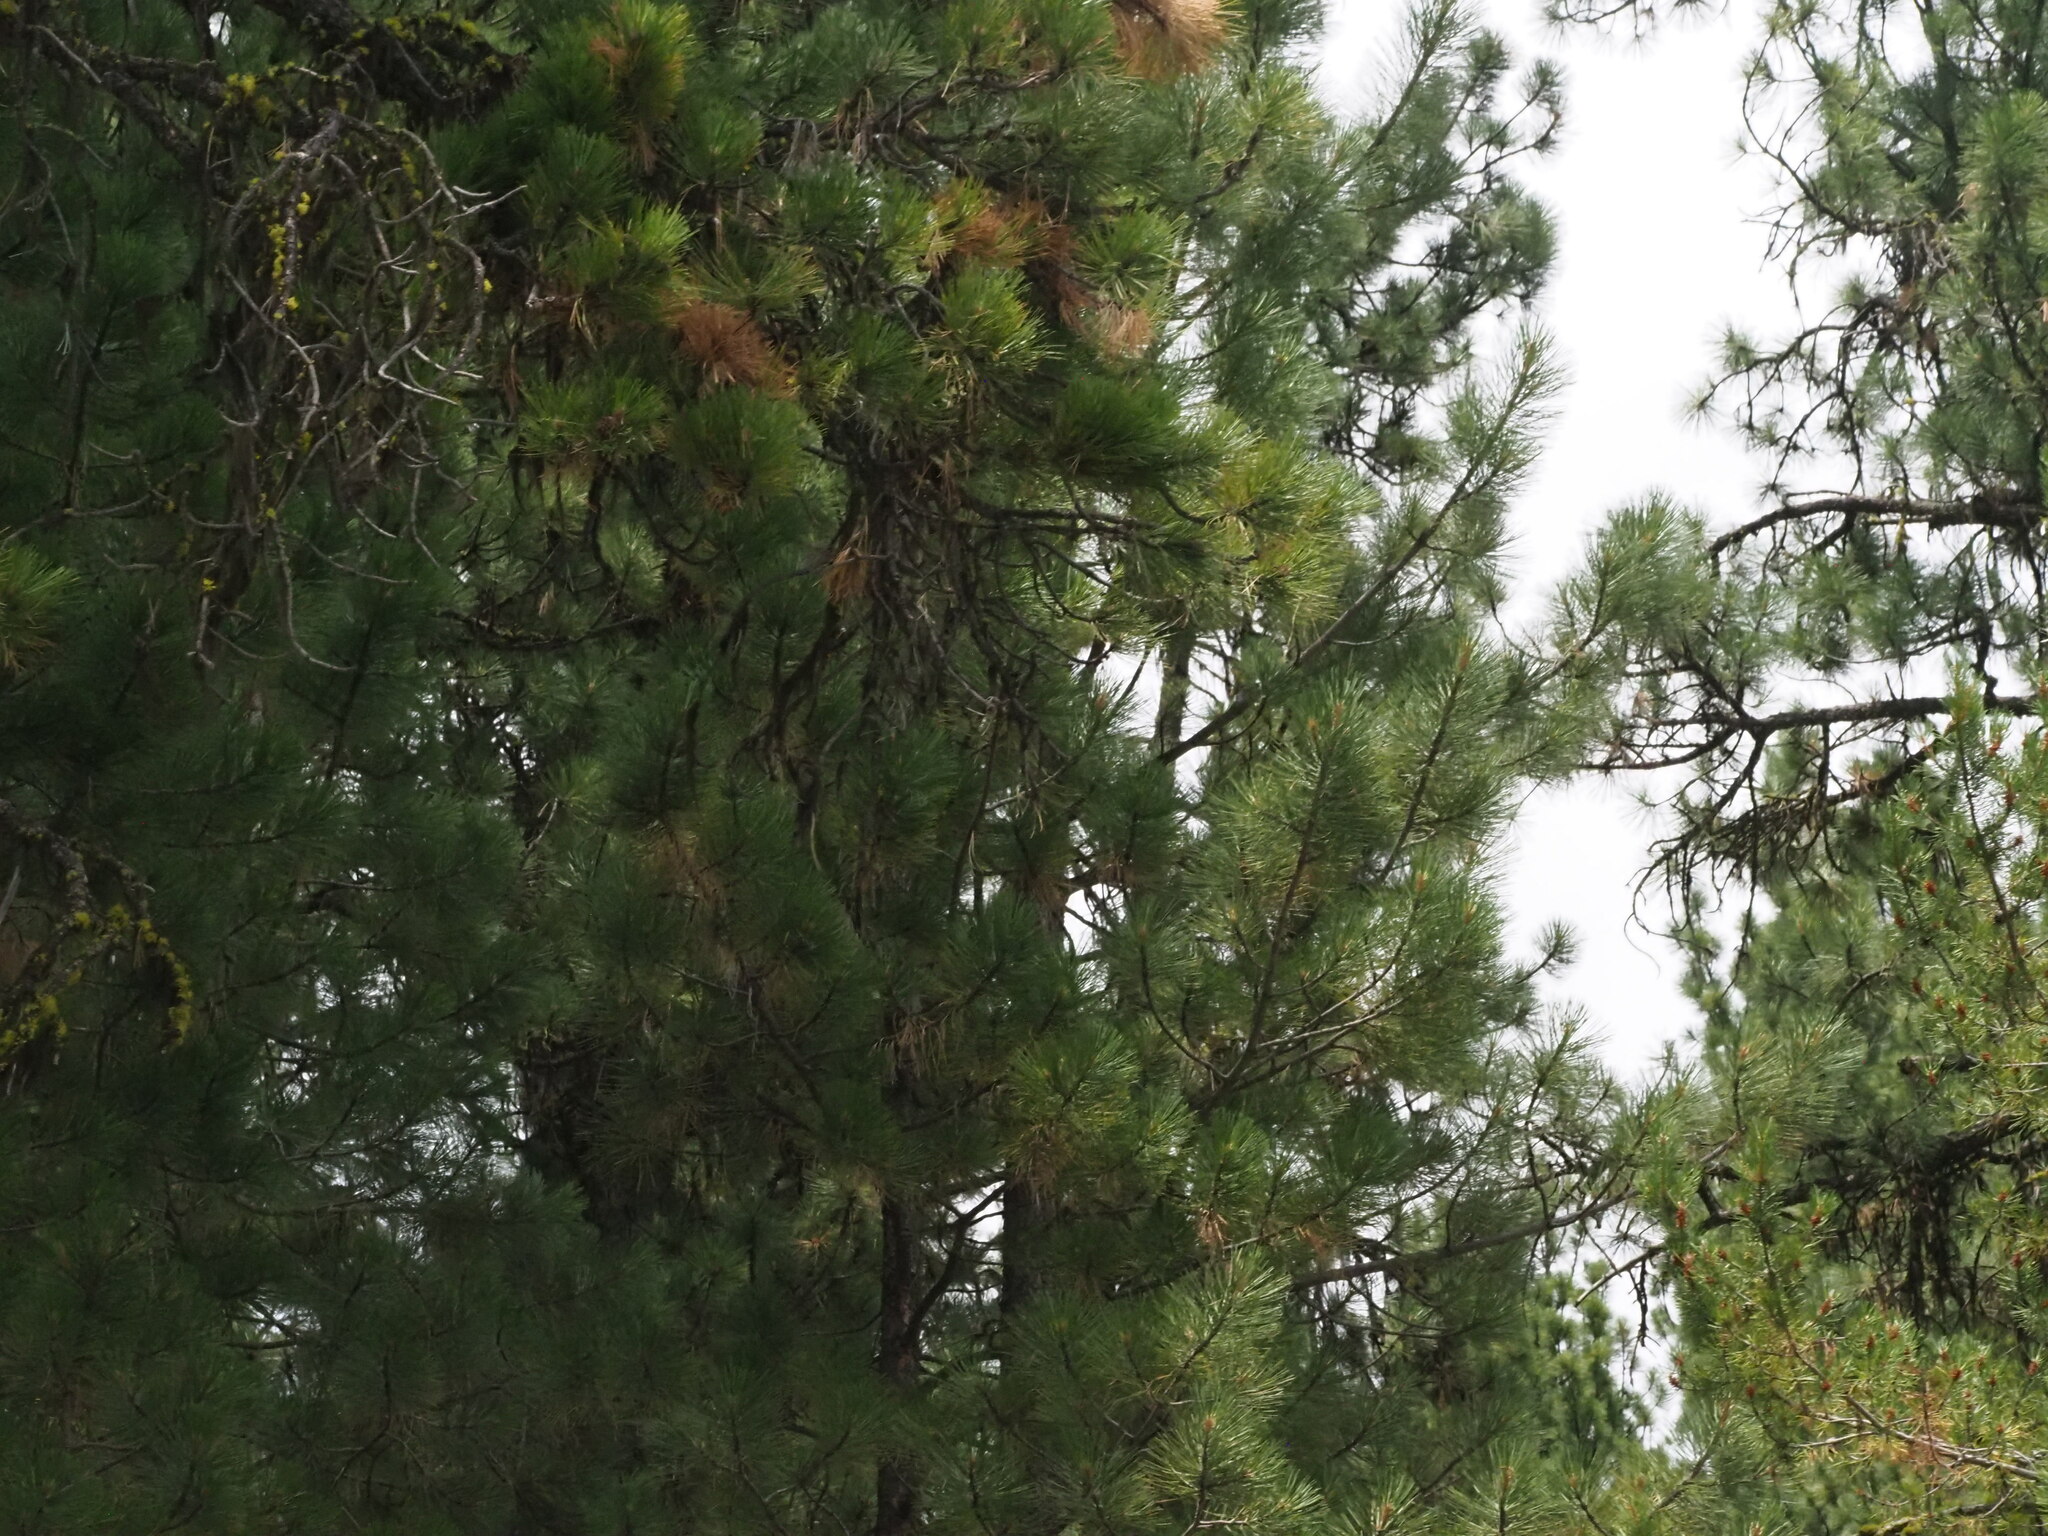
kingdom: Plantae
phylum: Tracheophyta
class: Pinopsida
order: Pinales
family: Pinaceae
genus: Pinus
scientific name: Pinus ponderosa
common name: Western yellow-pine
